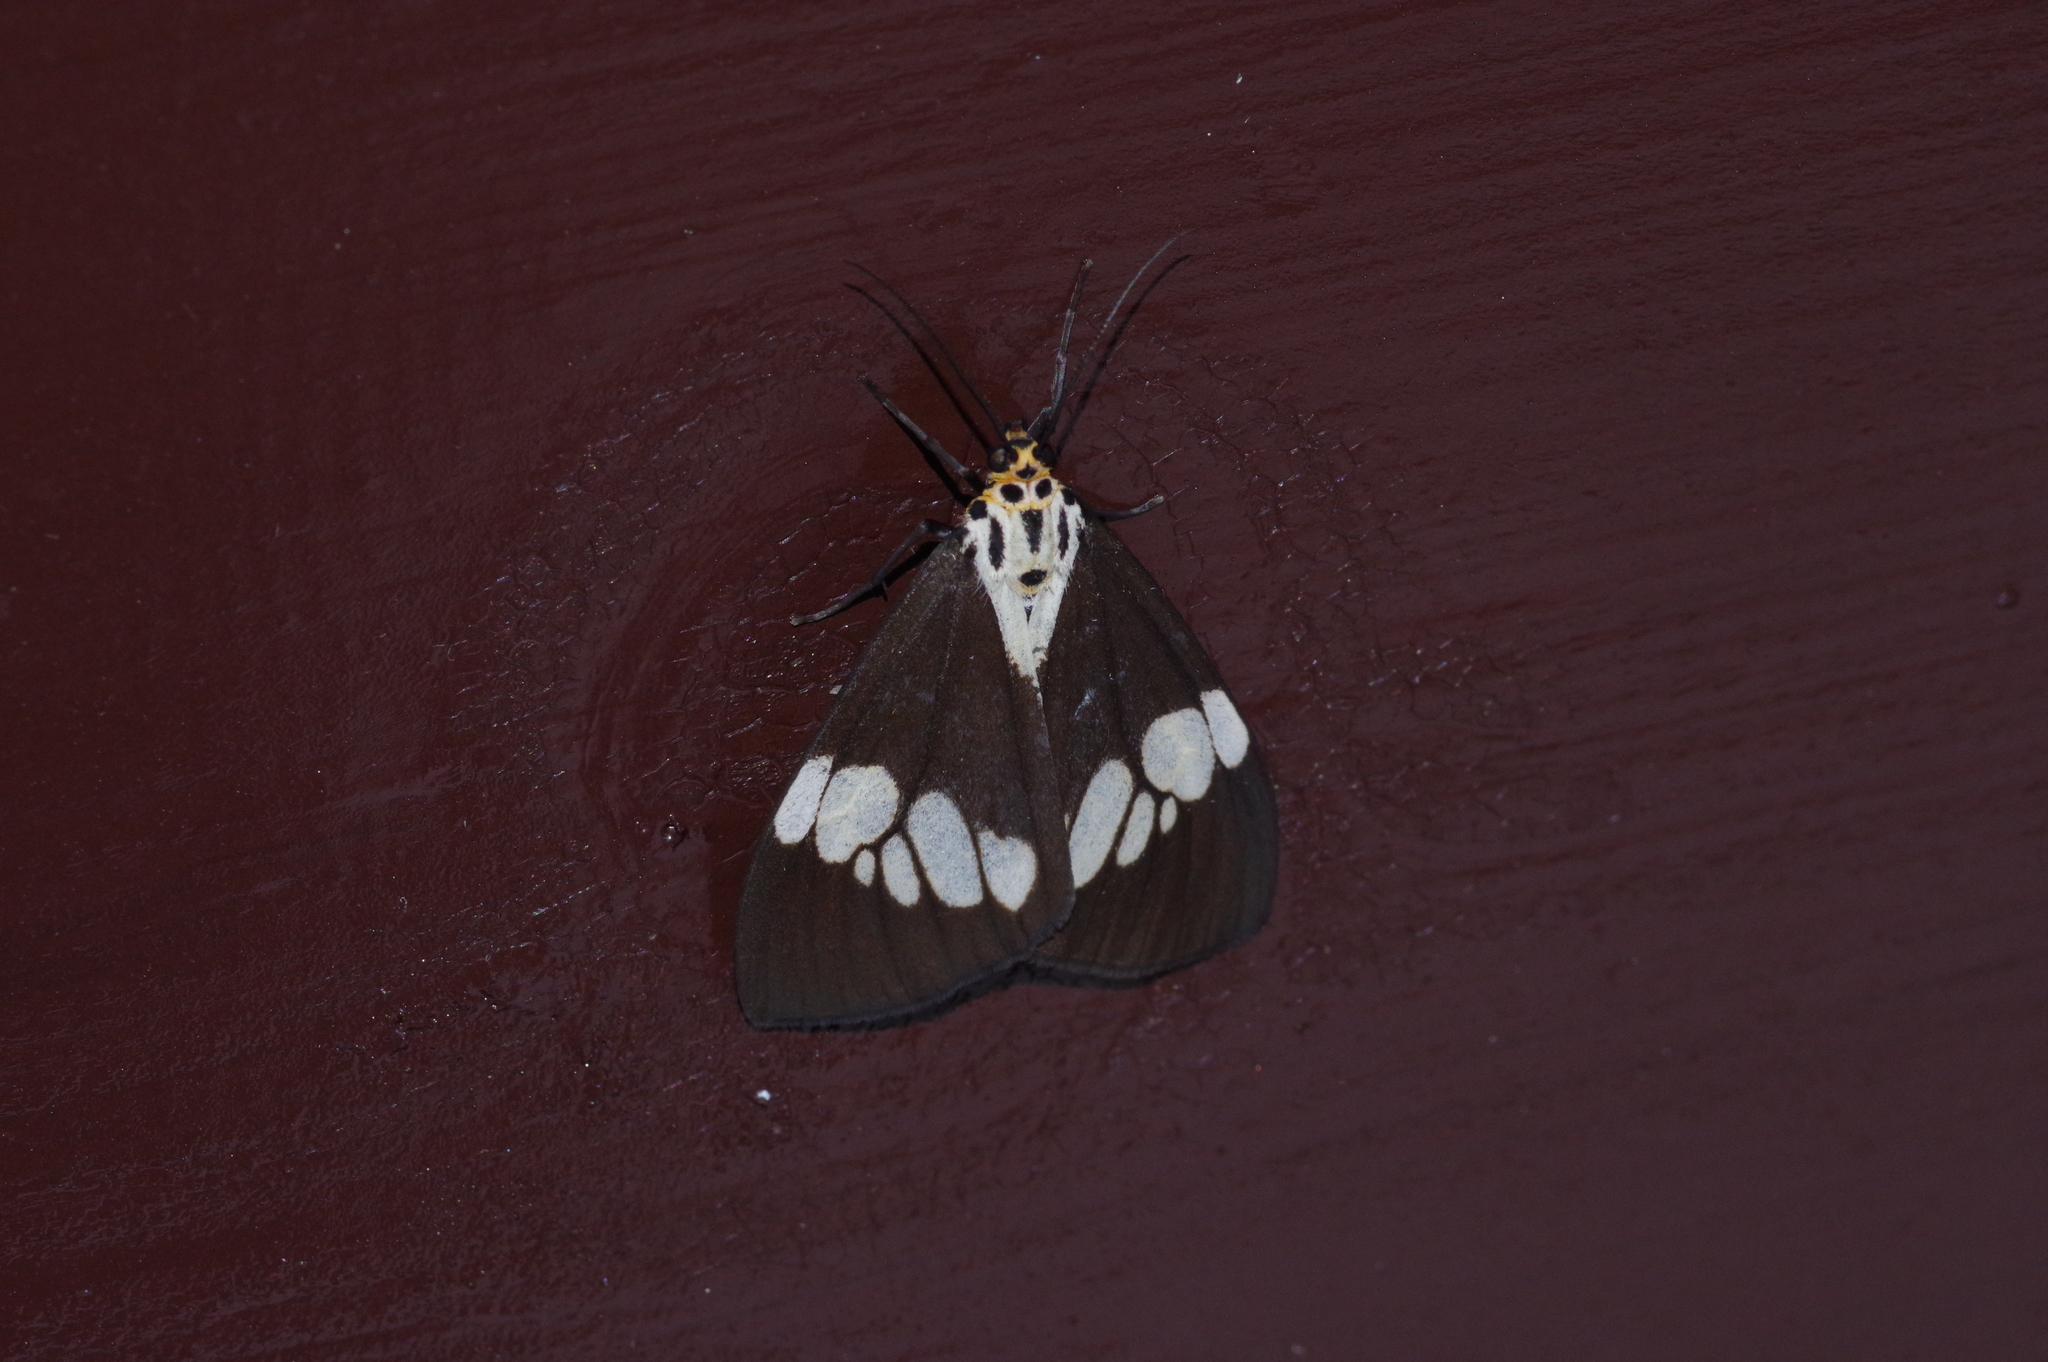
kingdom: Animalia
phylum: Arthropoda
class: Insecta
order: Lepidoptera
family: Erebidae
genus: Nyctemera
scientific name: Nyctemera lacticinia
